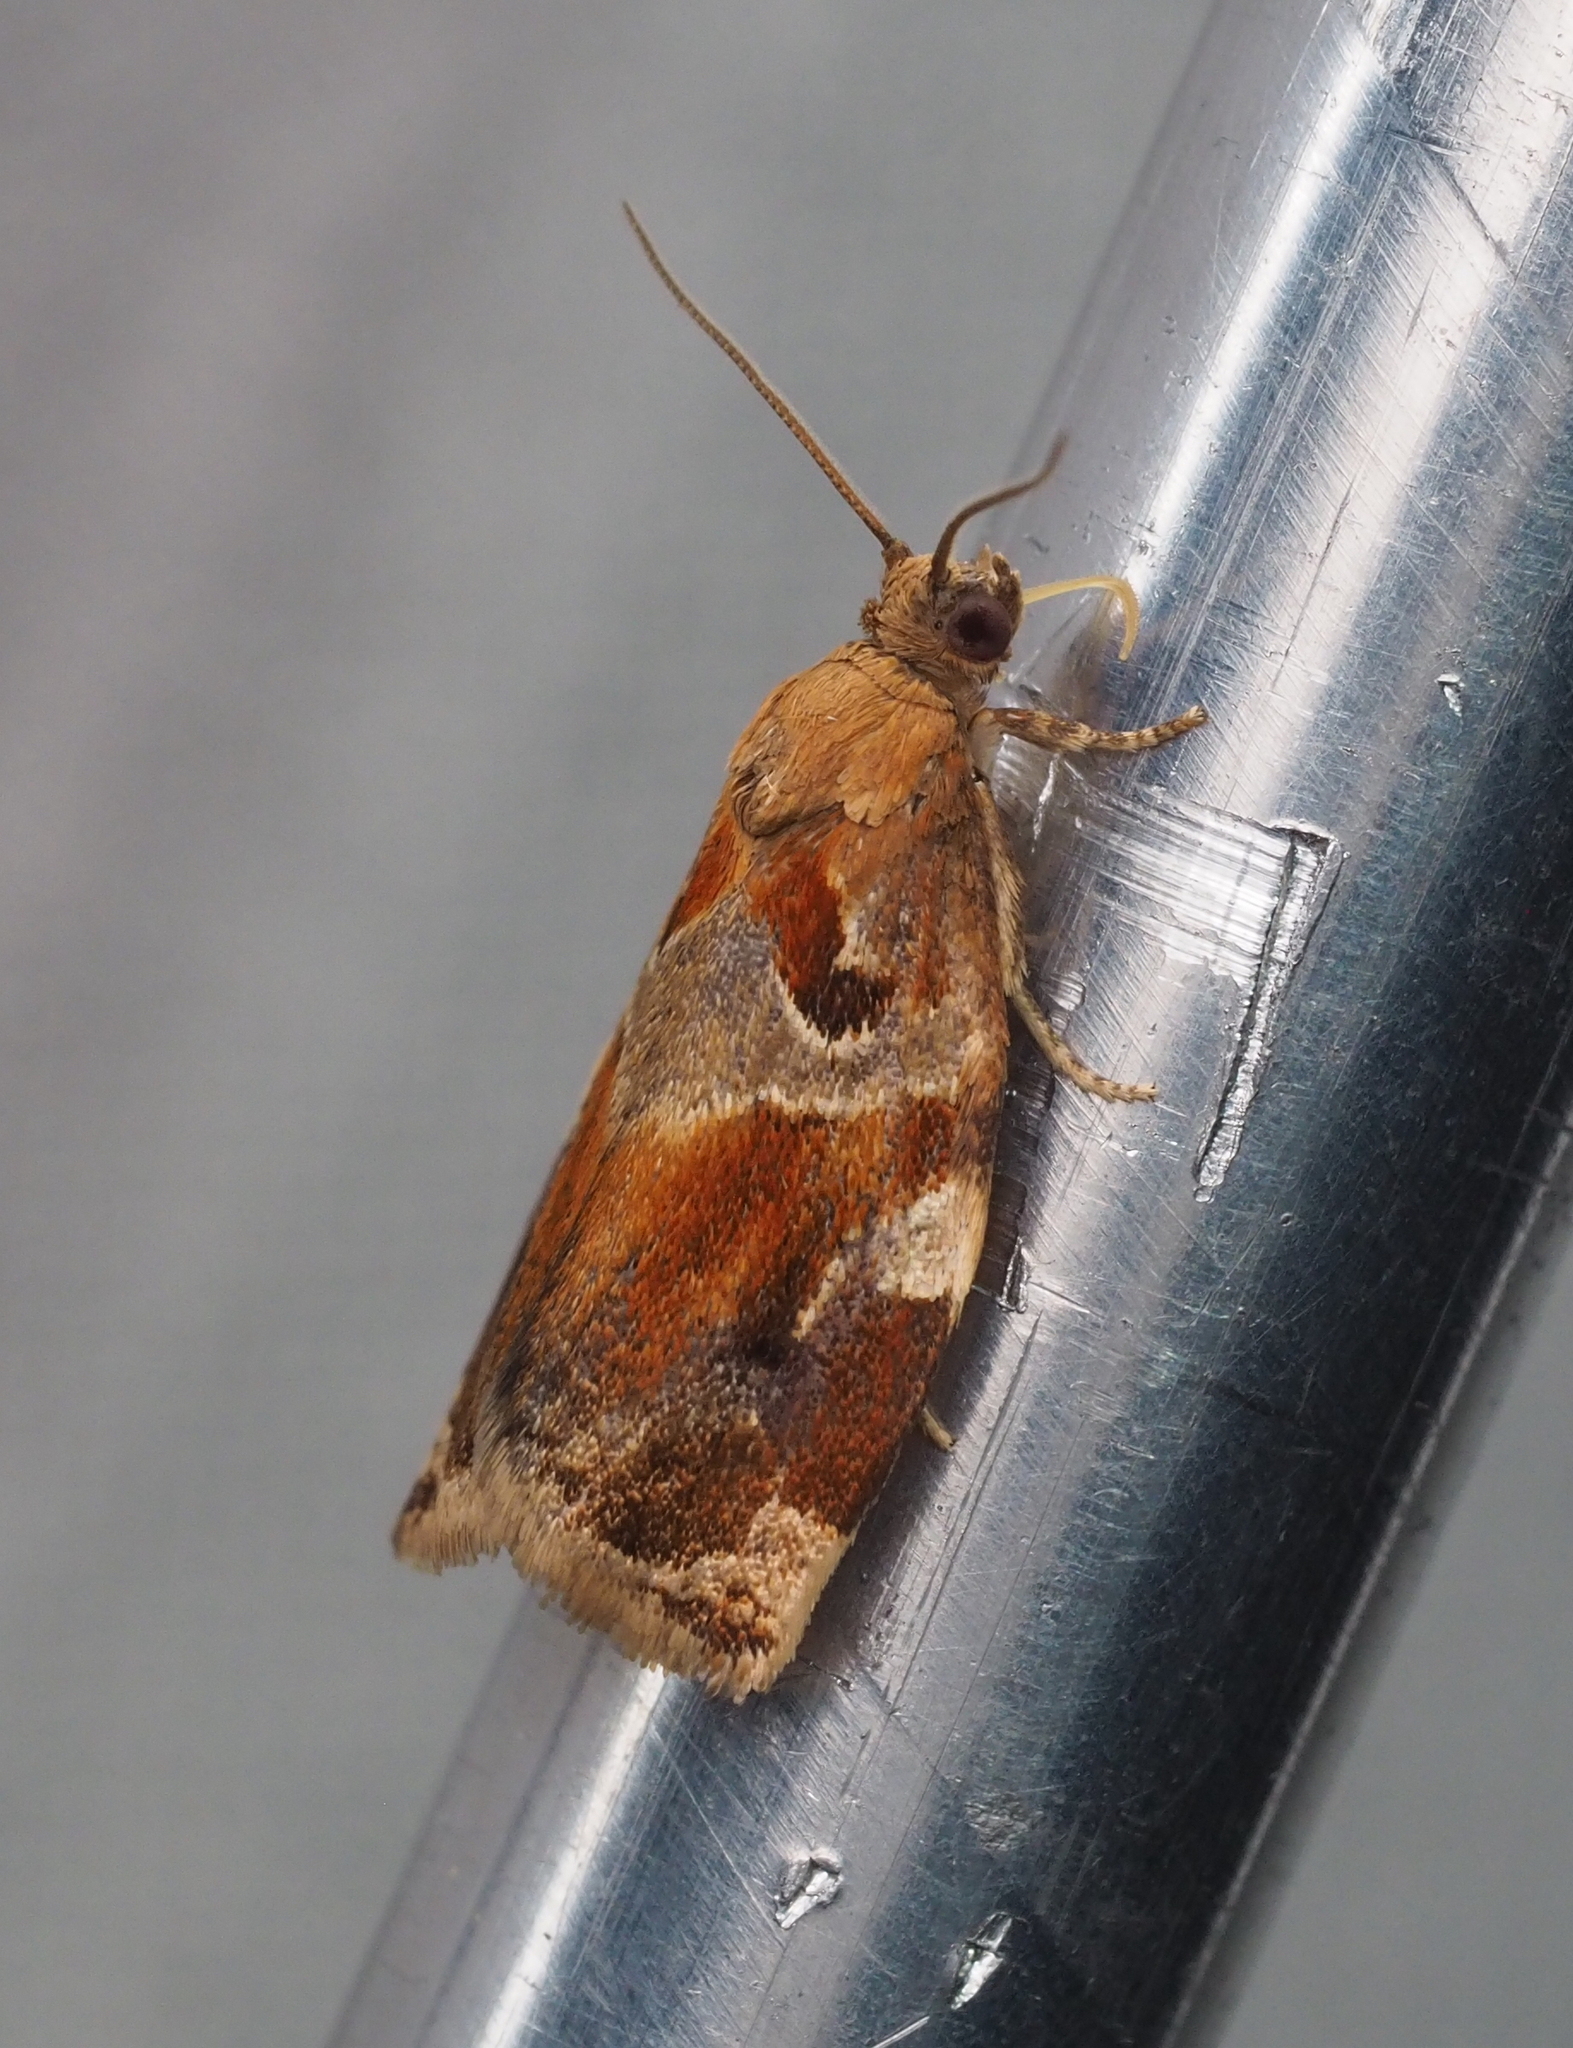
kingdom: Animalia
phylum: Arthropoda
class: Insecta
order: Lepidoptera
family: Tortricidae
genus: Archips
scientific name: Archips xylosteana
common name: Variegated golden tortrix
